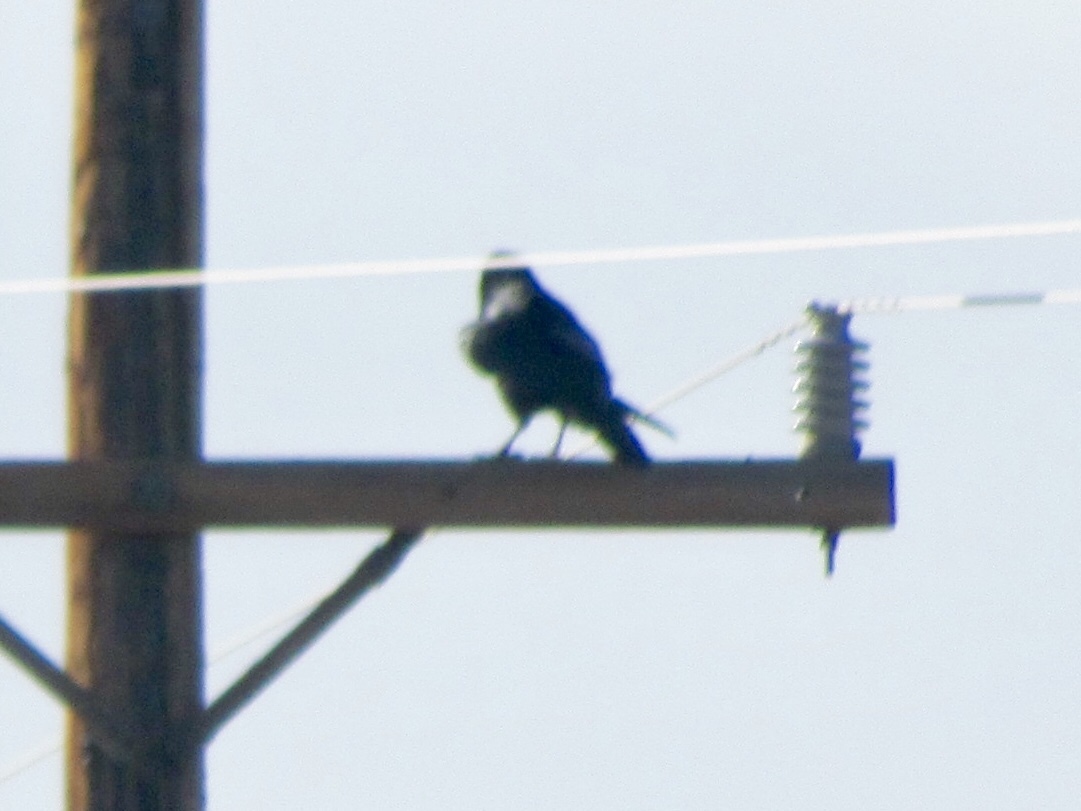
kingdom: Animalia
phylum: Chordata
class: Aves
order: Passeriformes
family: Corvidae
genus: Corvus
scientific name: Corvus cryptoleucus
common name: Chihuahuan raven
